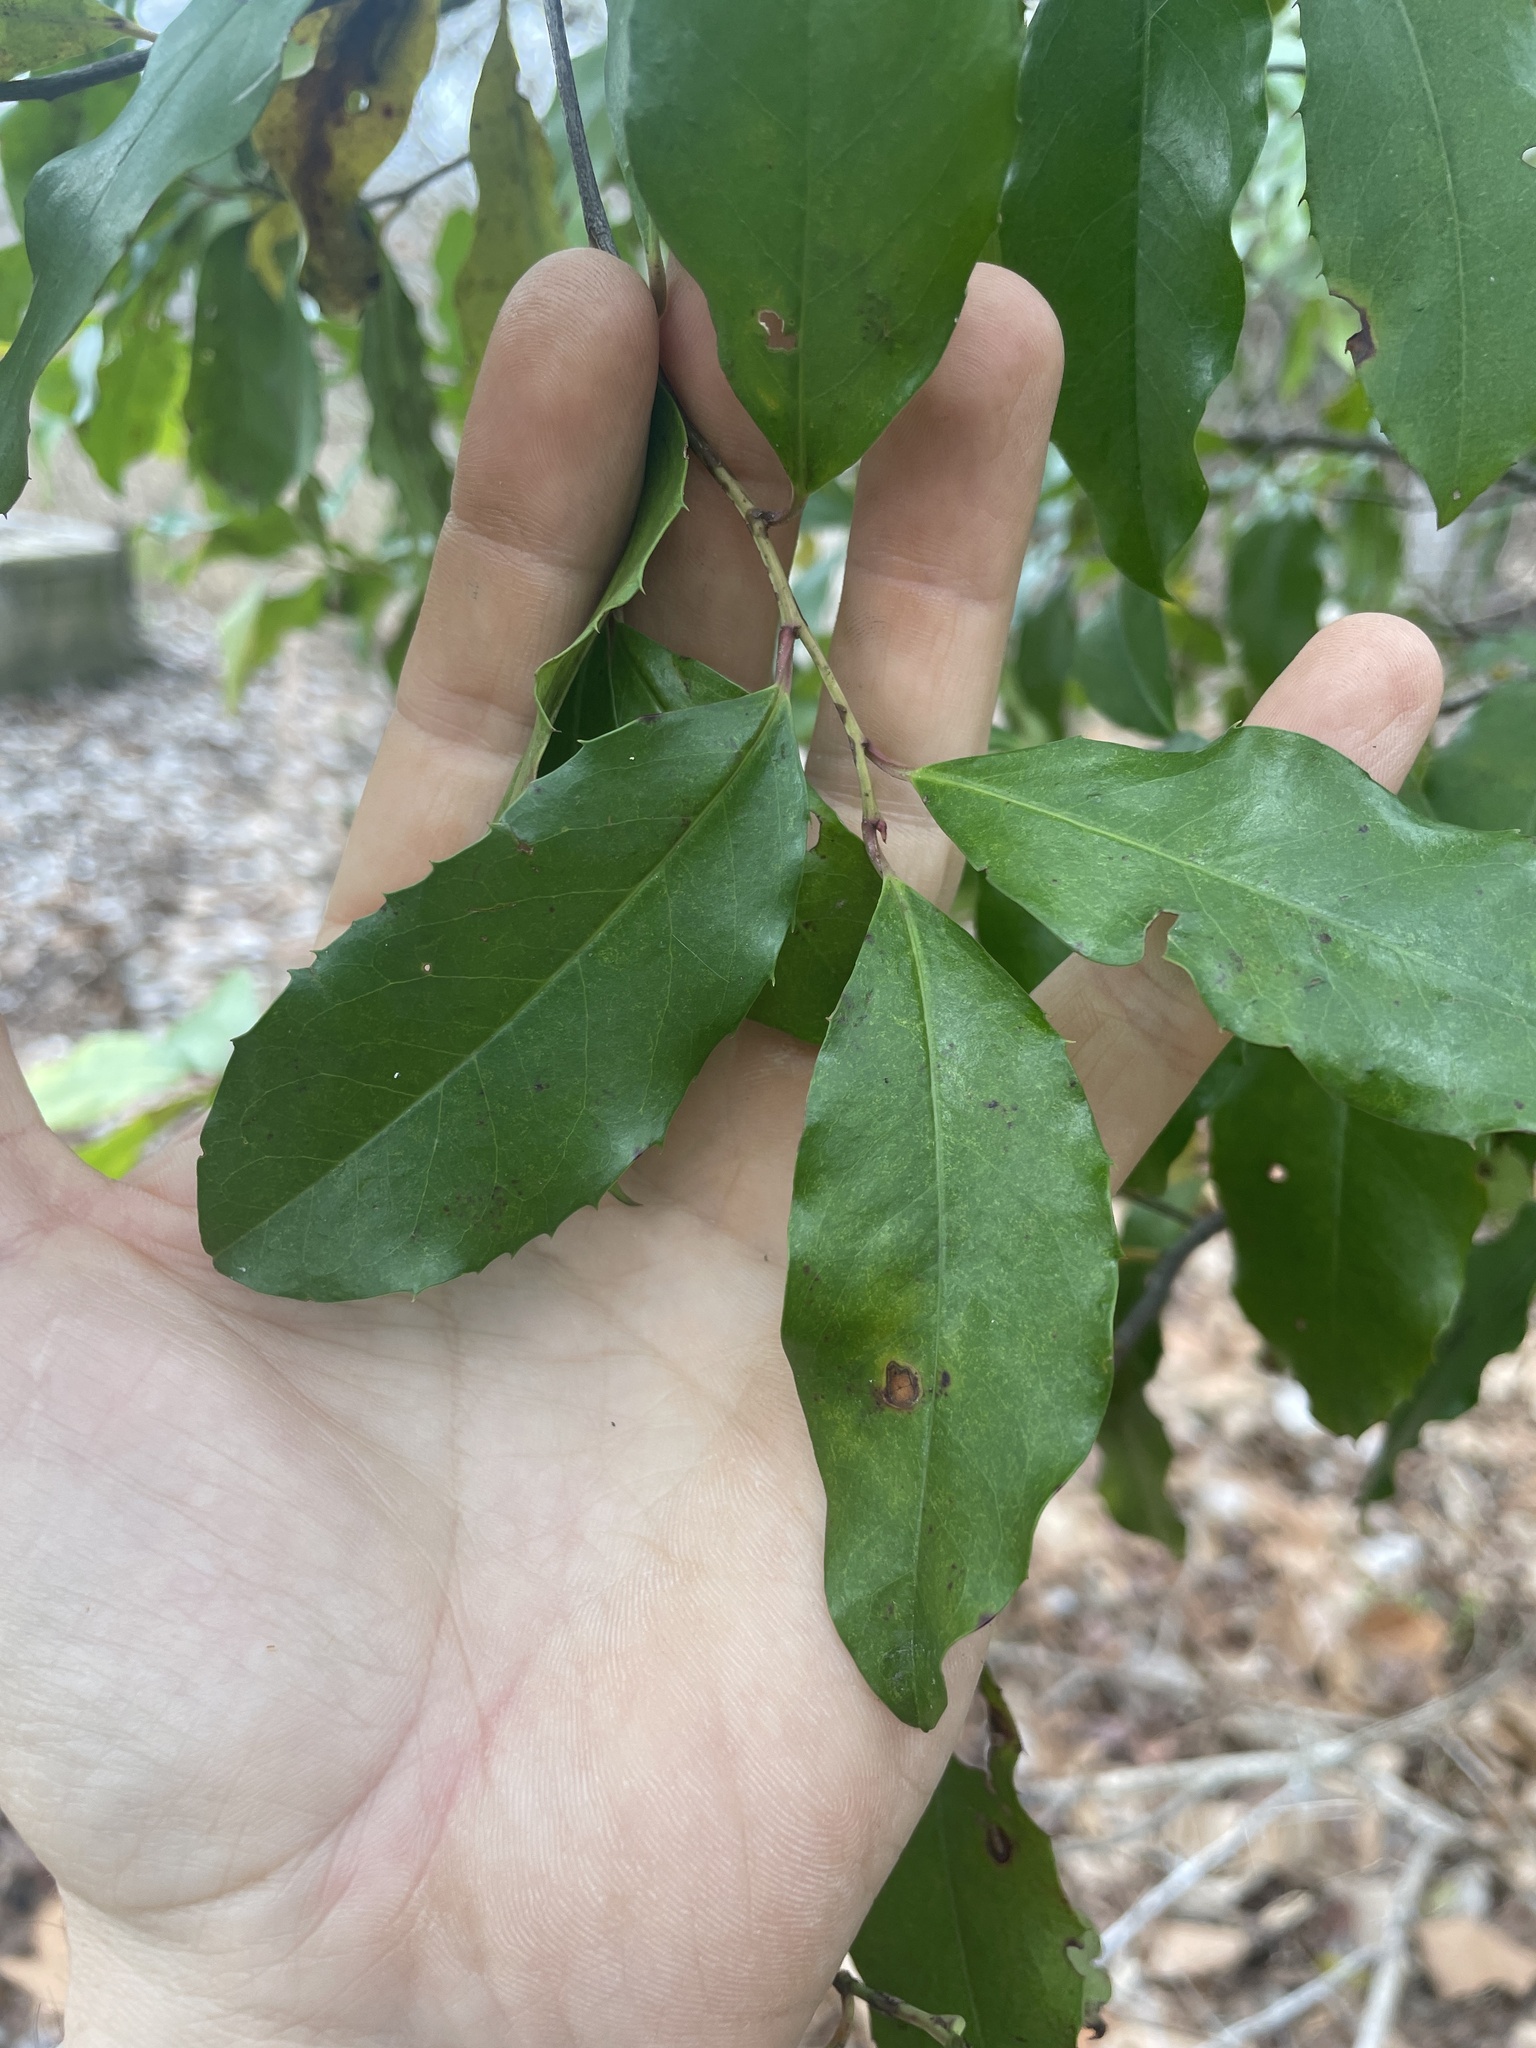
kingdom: Plantae
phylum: Tracheophyta
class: Magnoliopsida
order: Rosales
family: Rosaceae
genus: Prunus
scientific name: Prunus caroliniana
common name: Carolina laurel cherry
